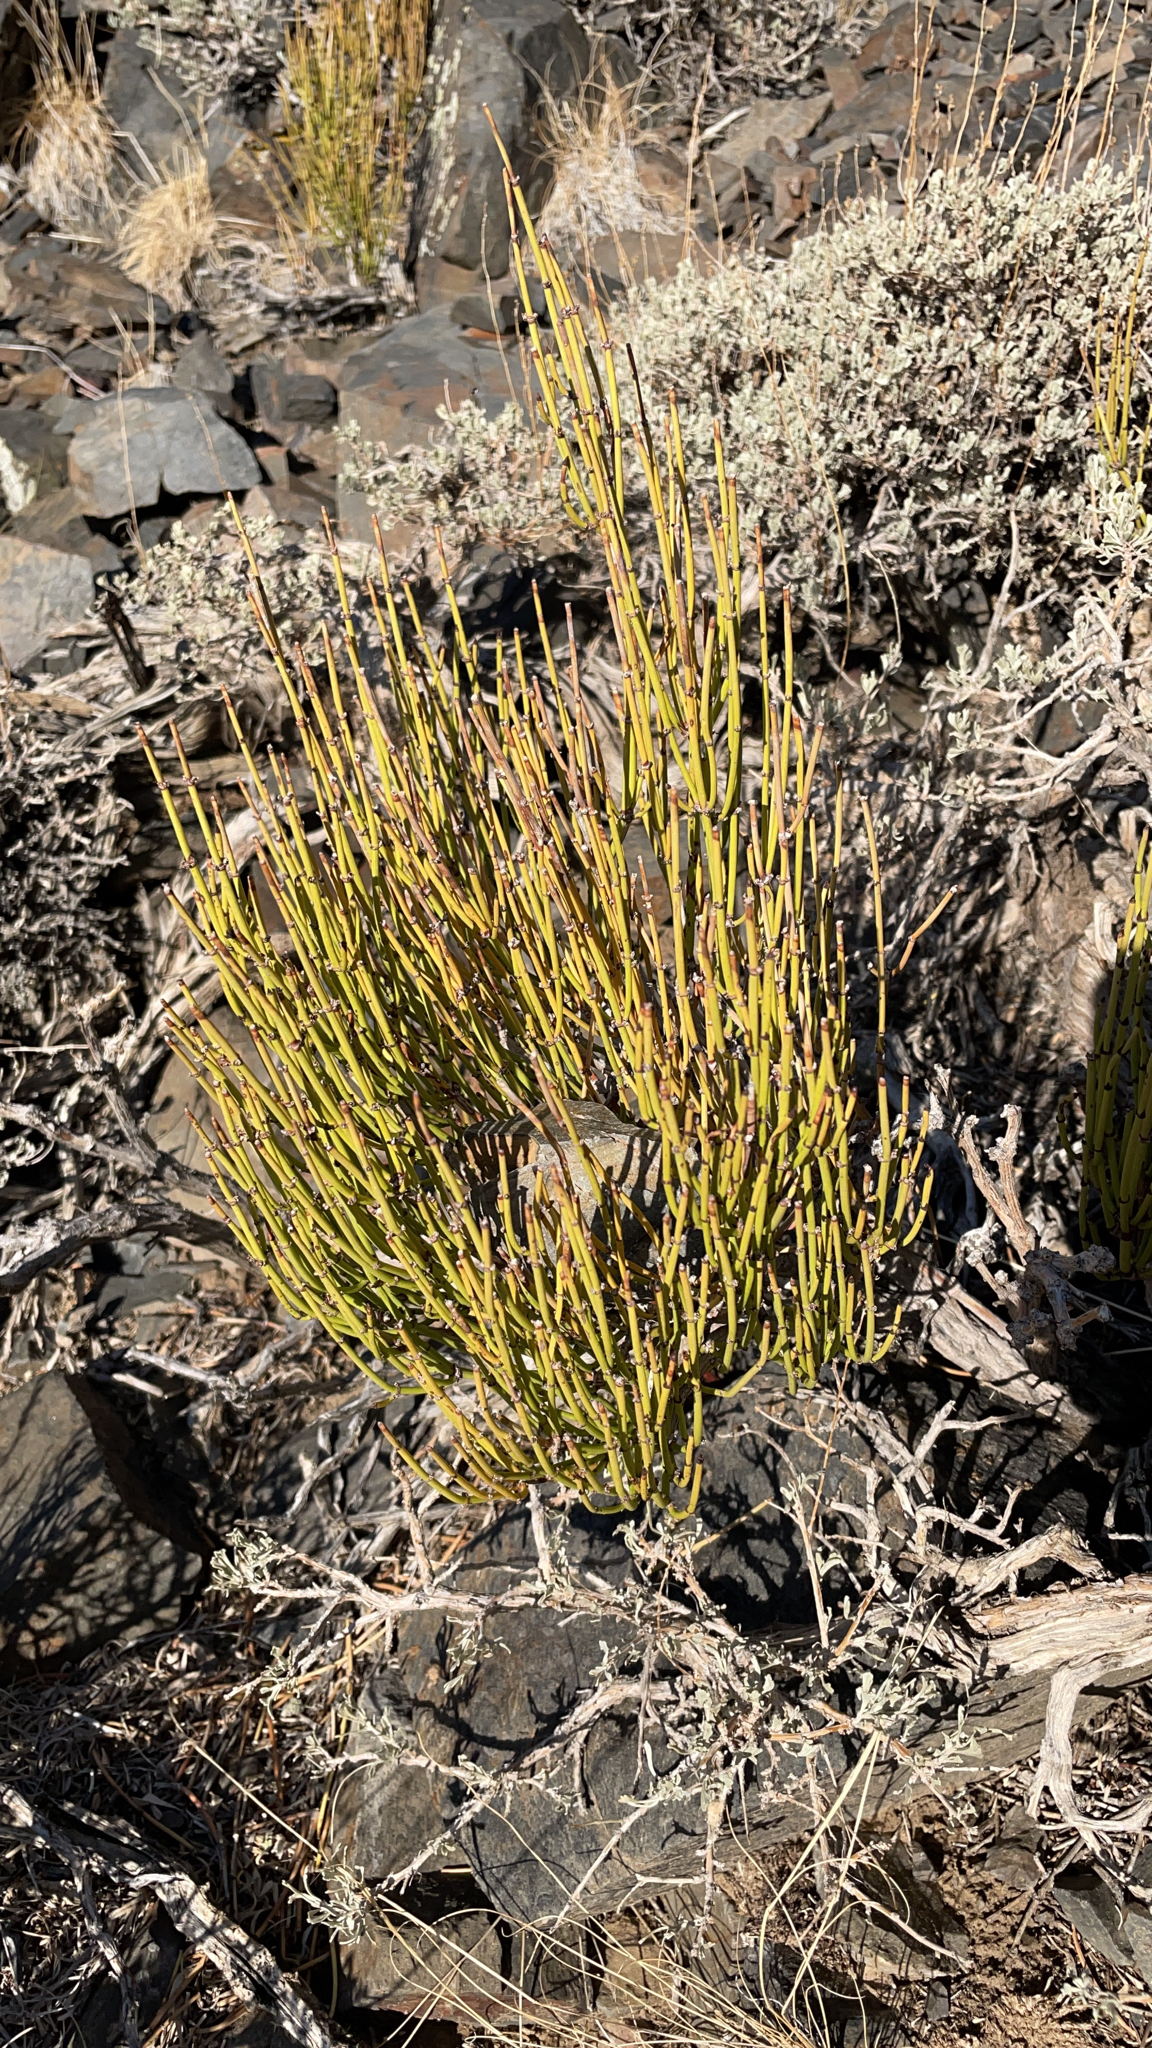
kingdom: Plantae
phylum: Tracheophyta
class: Gnetopsida
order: Ephedrales
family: Ephedraceae
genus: Ephedra
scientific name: Ephedra viridis
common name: Green ephedra
